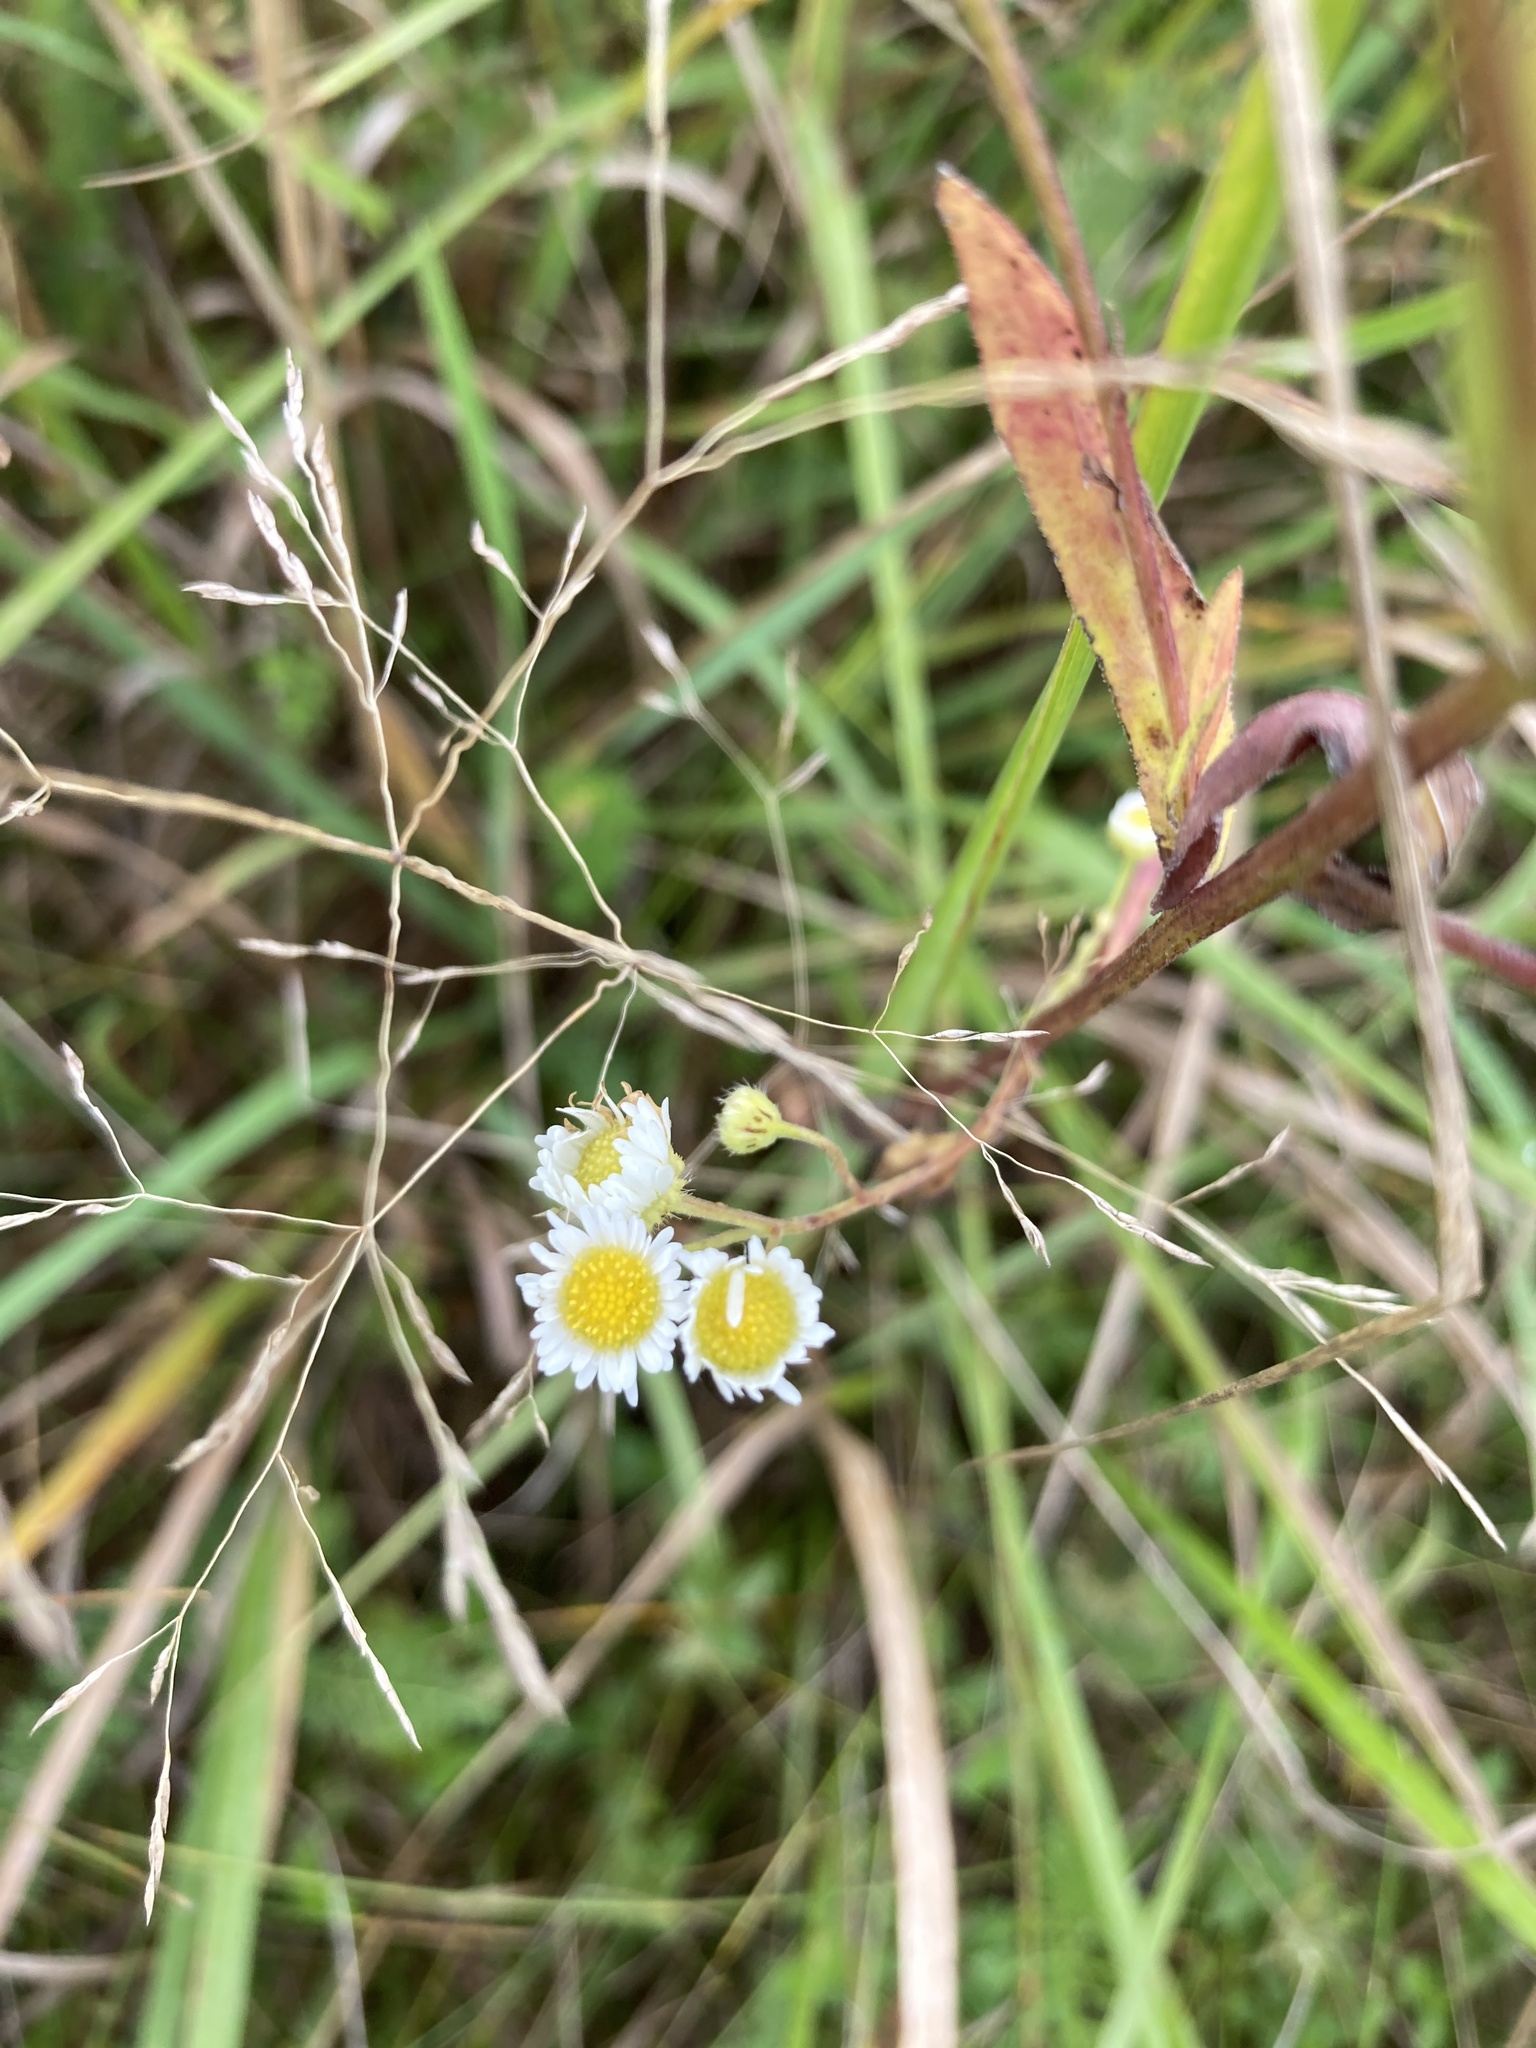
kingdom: Plantae
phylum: Tracheophyta
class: Magnoliopsida
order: Asterales
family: Asteraceae
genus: Erigeron
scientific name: Erigeron annuus
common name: Tall fleabane
